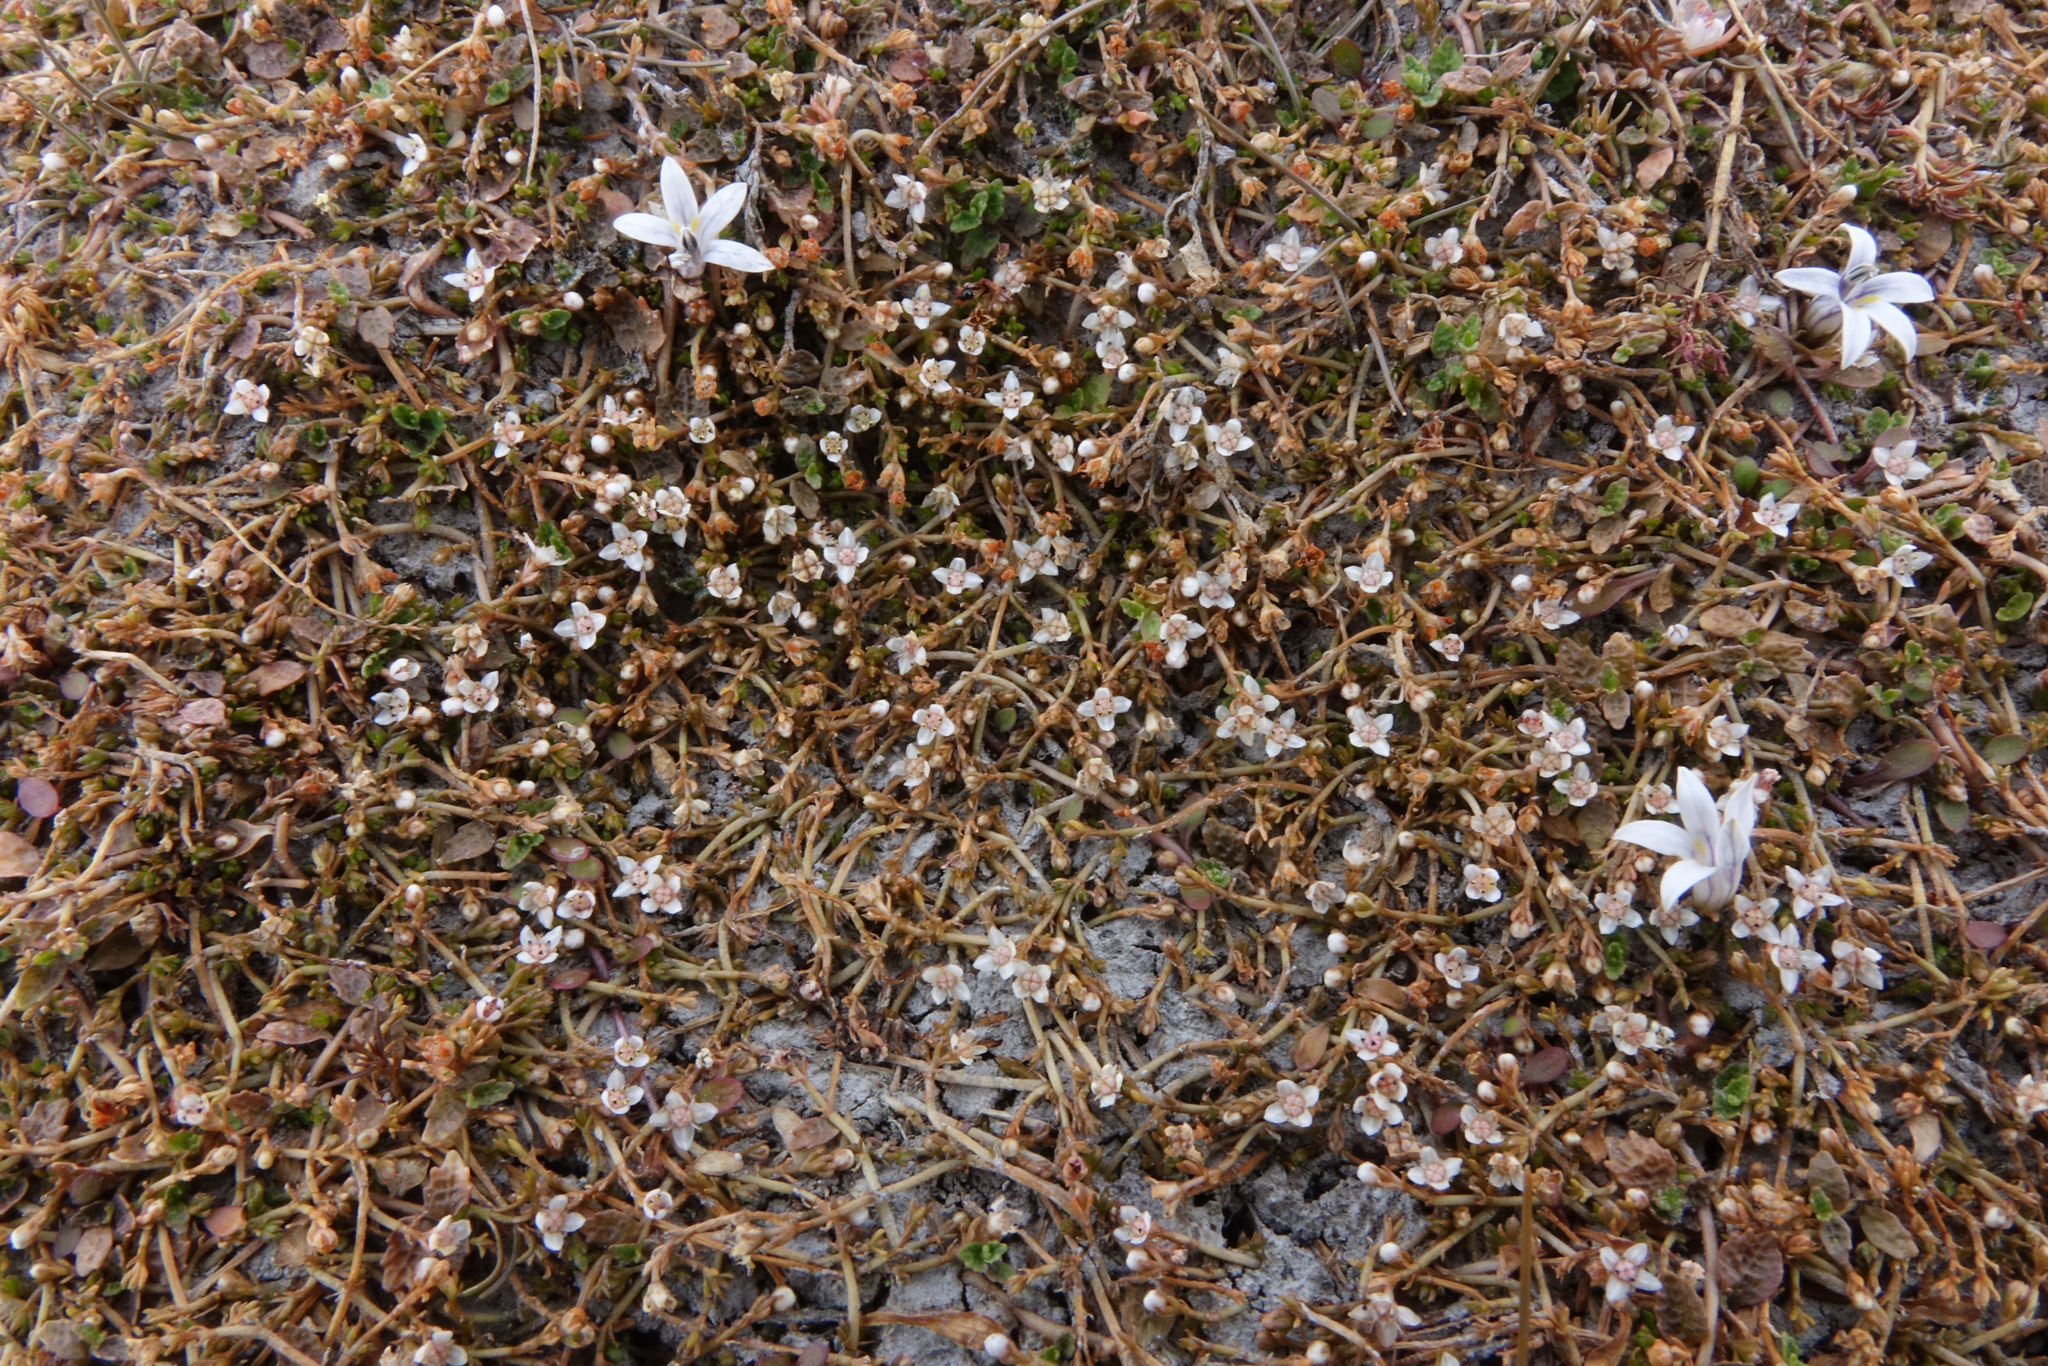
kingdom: Plantae
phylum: Tracheophyta
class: Magnoliopsida
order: Saxifragales
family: Crassulaceae
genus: Crassula
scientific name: Crassula sinclairii
